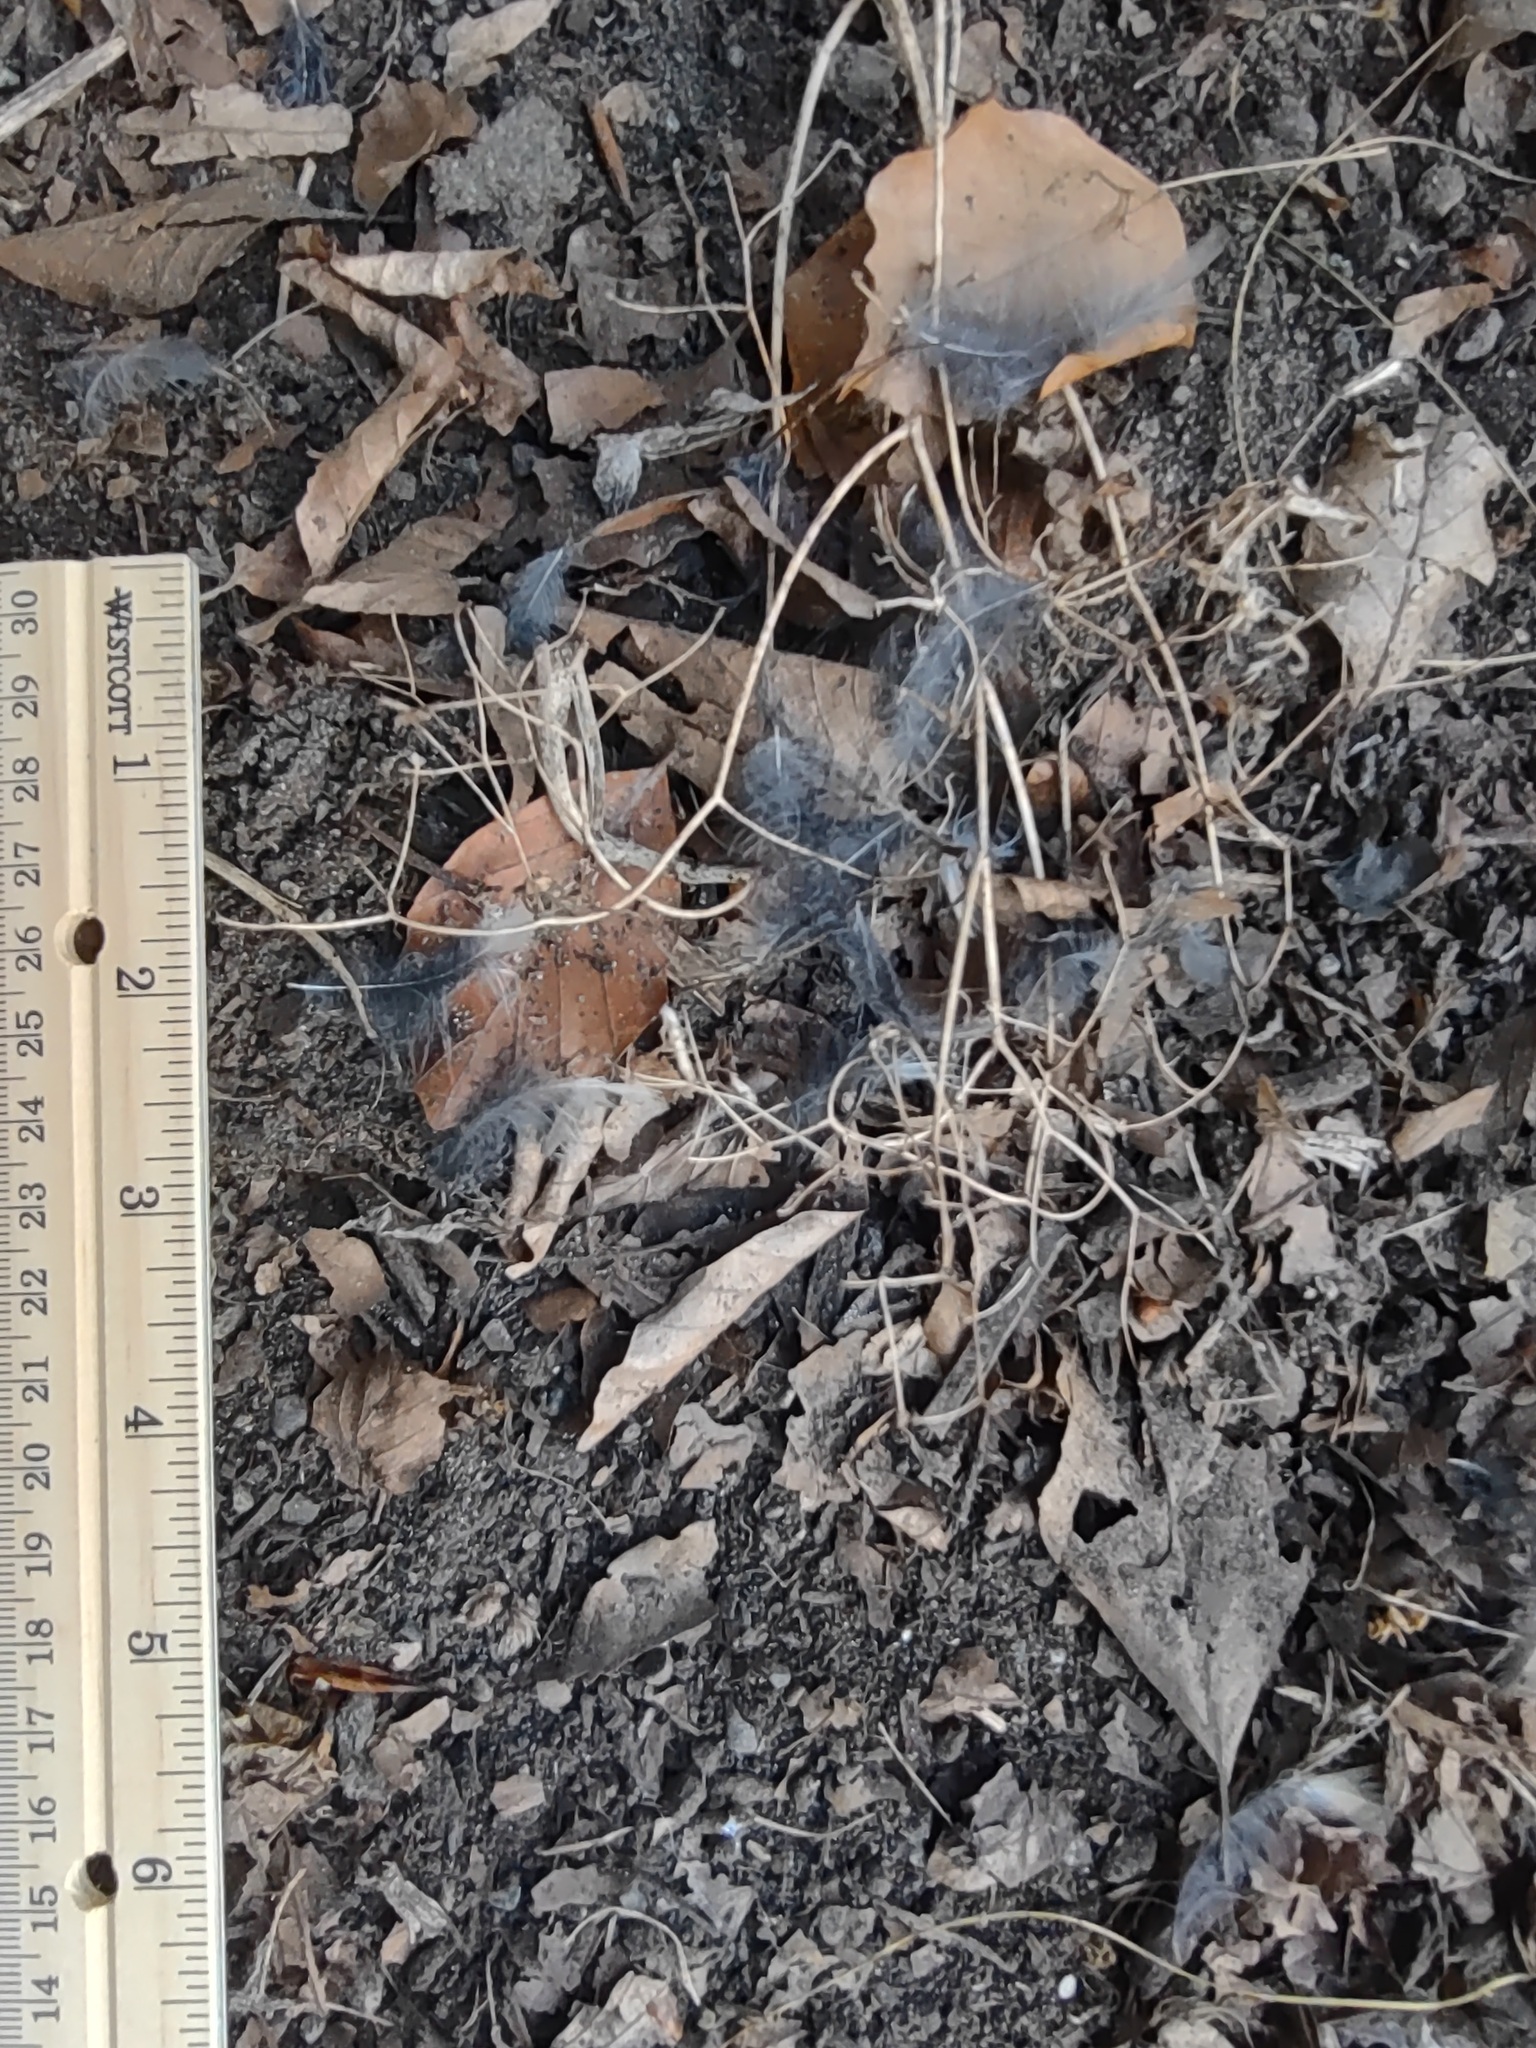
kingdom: Animalia
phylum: Chordata
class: Aves
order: Passeriformes
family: Turdidae
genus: Ixoreus
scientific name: Ixoreus naevius
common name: Varied thrush
